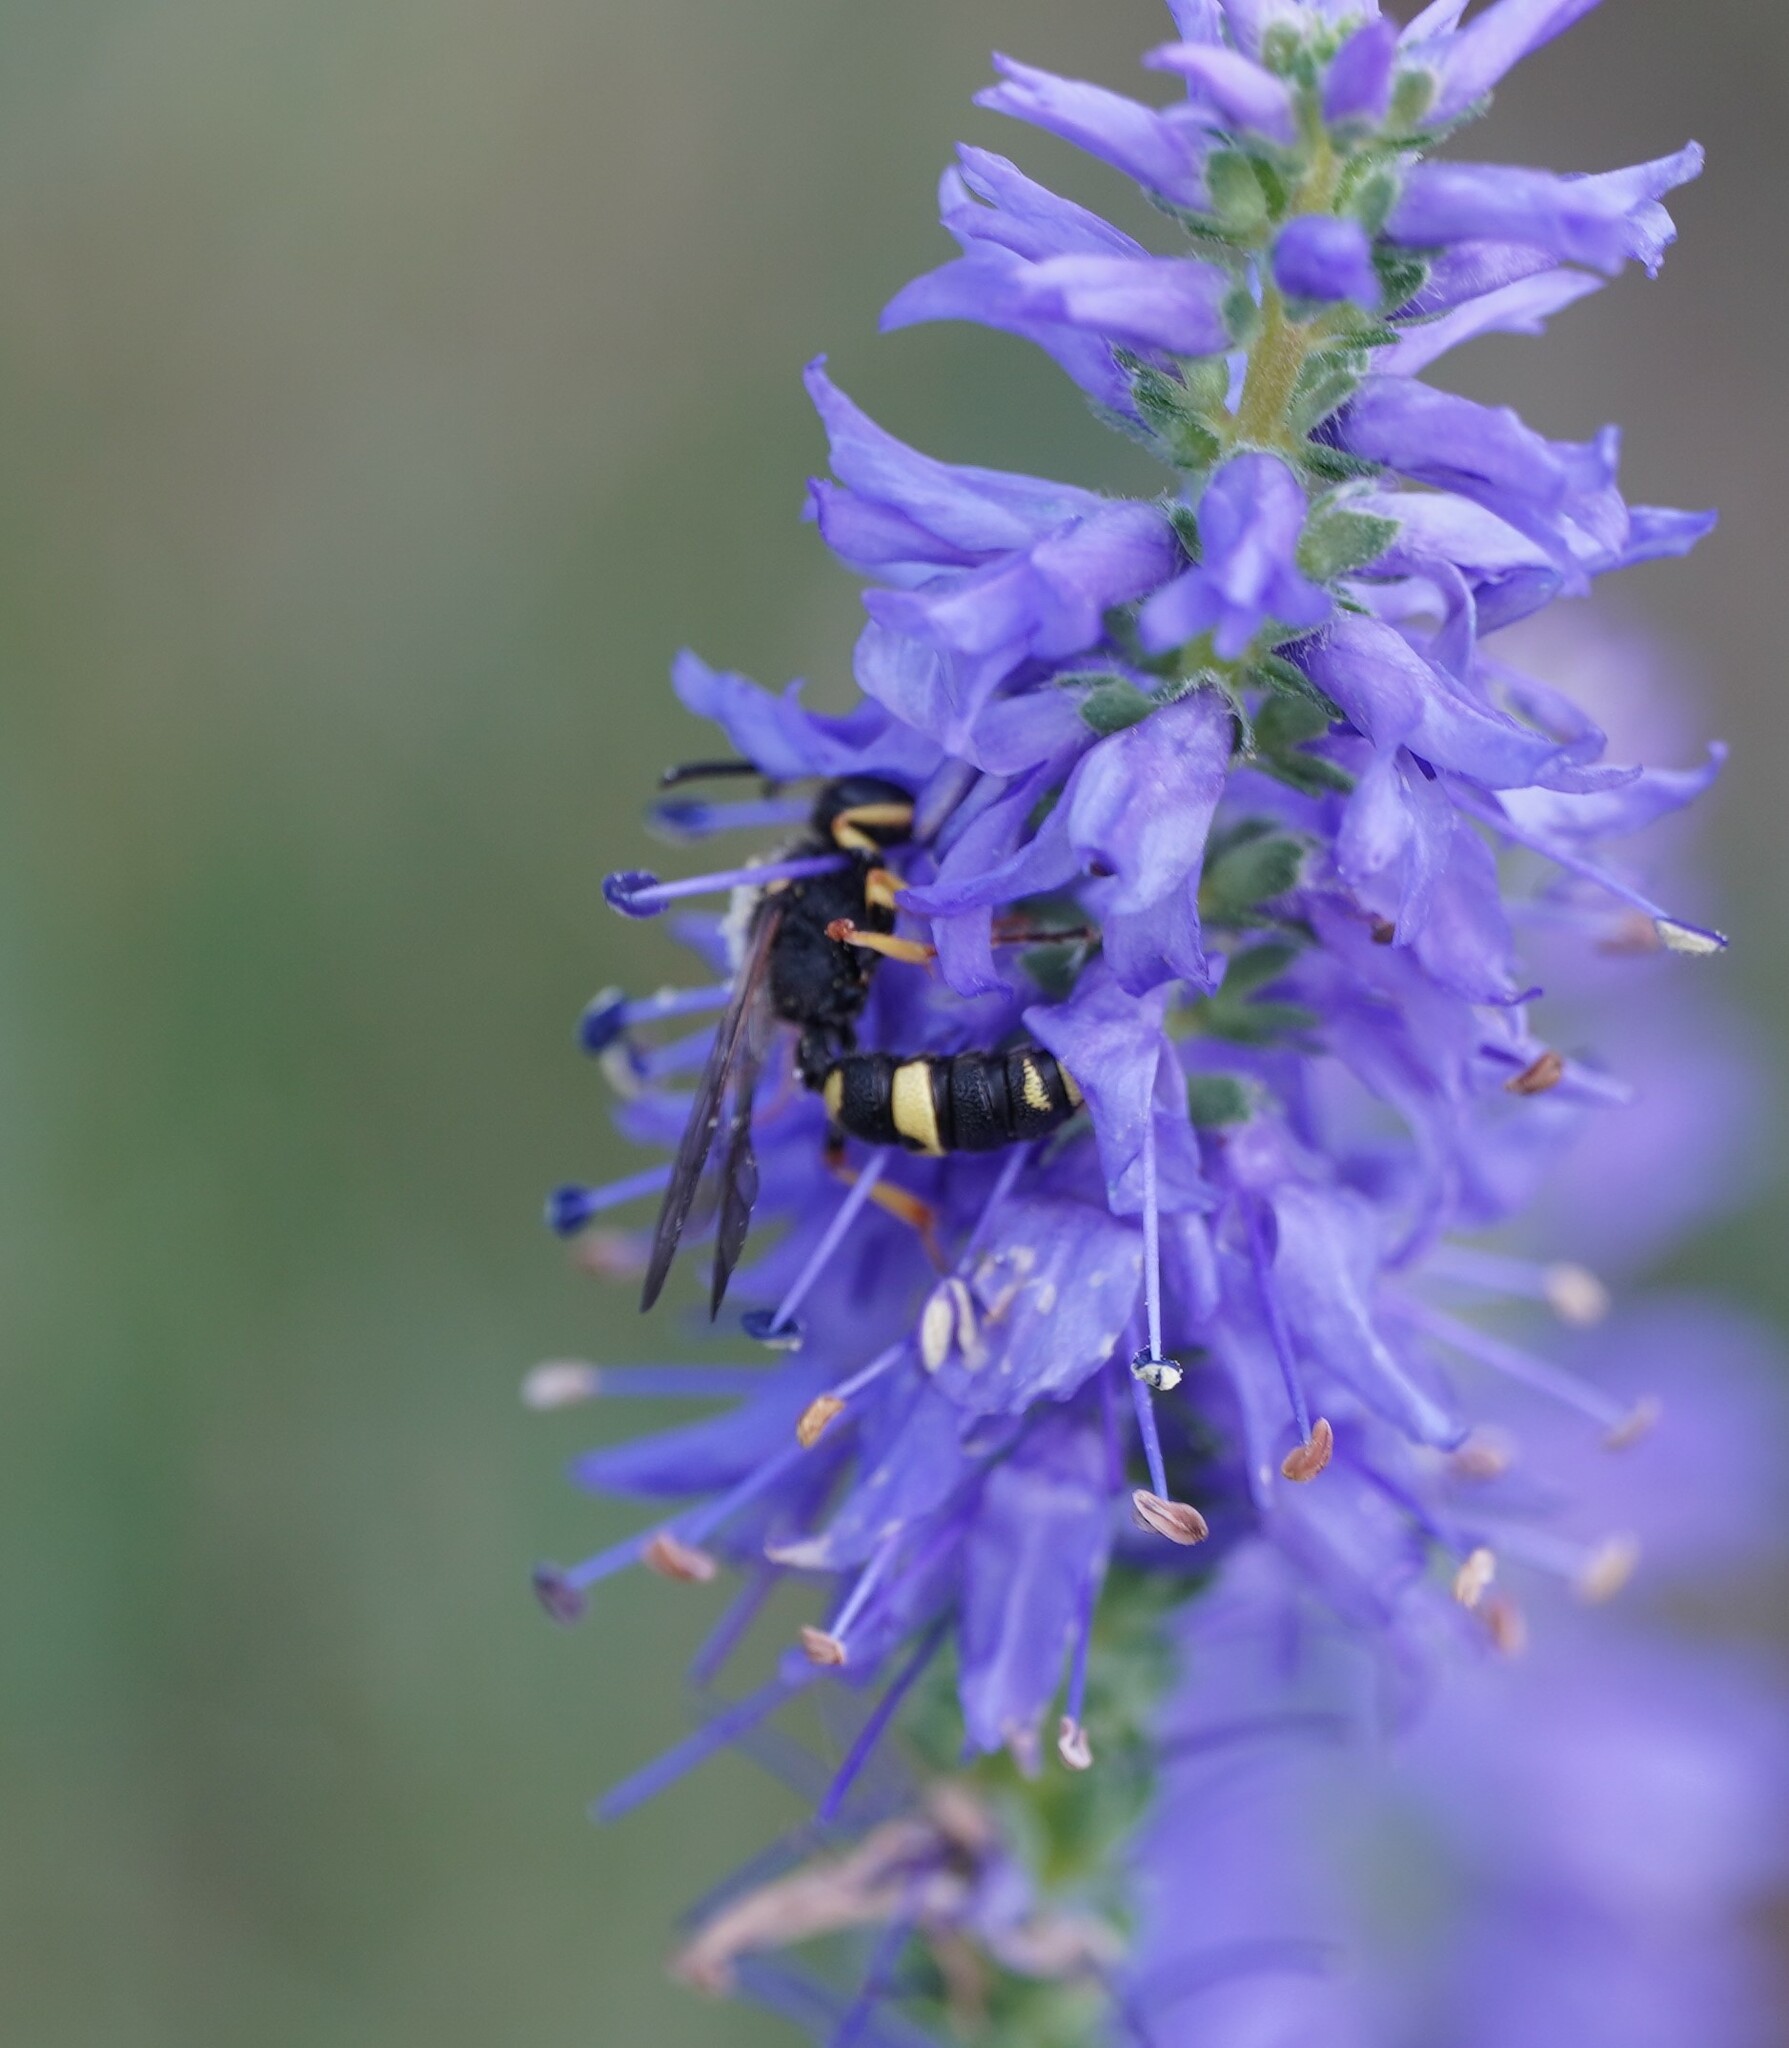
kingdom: Animalia
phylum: Arthropoda
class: Insecta
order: Hymenoptera
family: Crabronidae
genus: Cerceris
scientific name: Cerceris rybyensis
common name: Ornate tailed digger wasp
